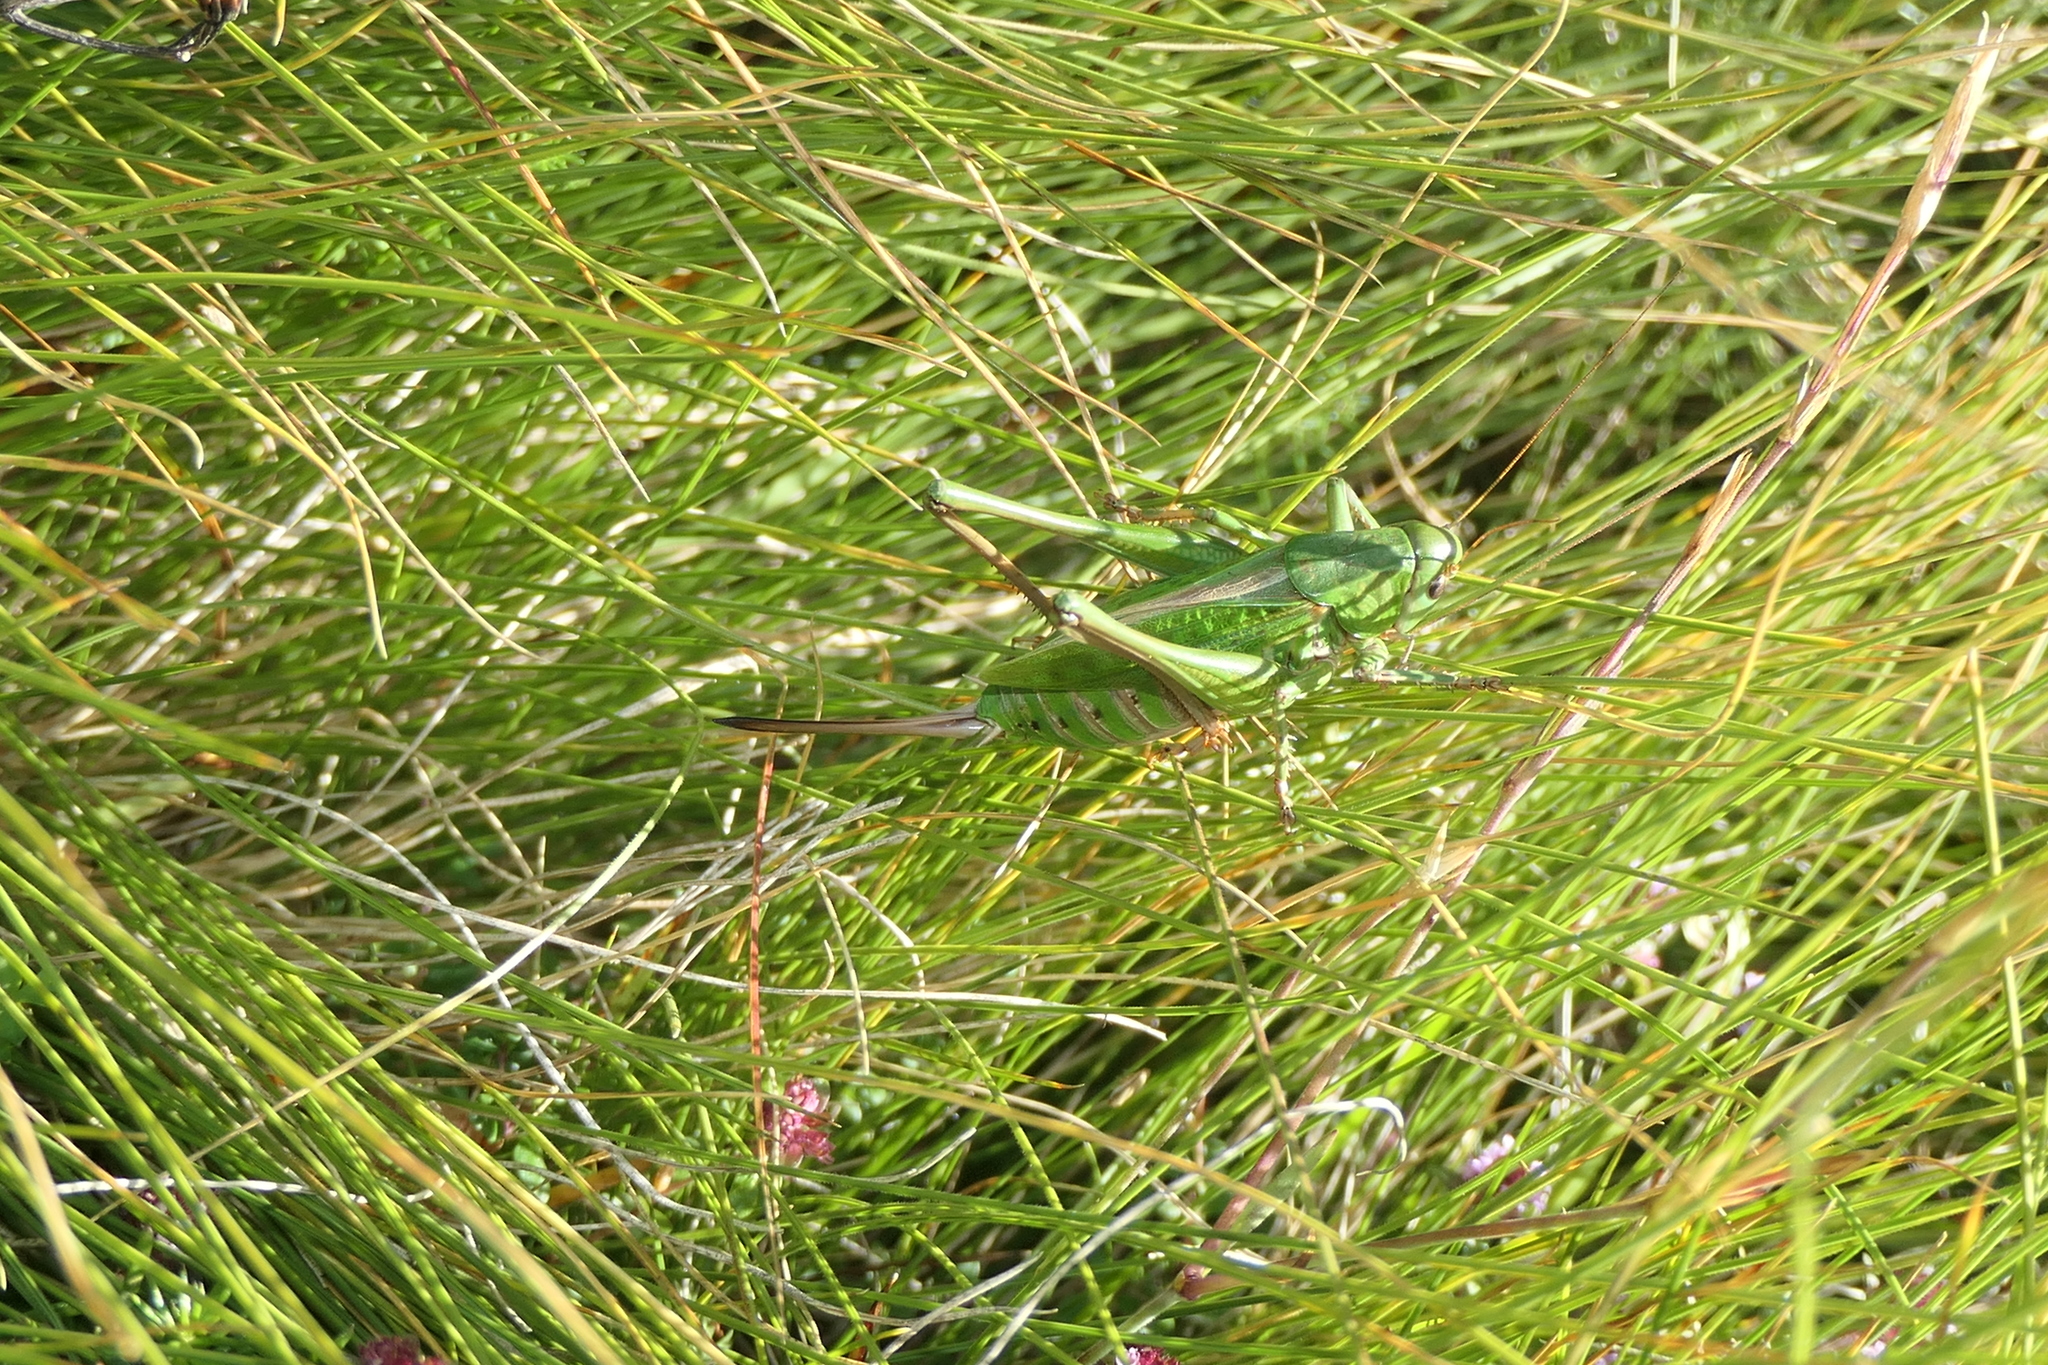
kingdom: Animalia
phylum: Arthropoda
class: Insecta
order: Orthoptera
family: Tettigoniidae
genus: Decticus
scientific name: Decticus verrucivorus
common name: Wart-biter
